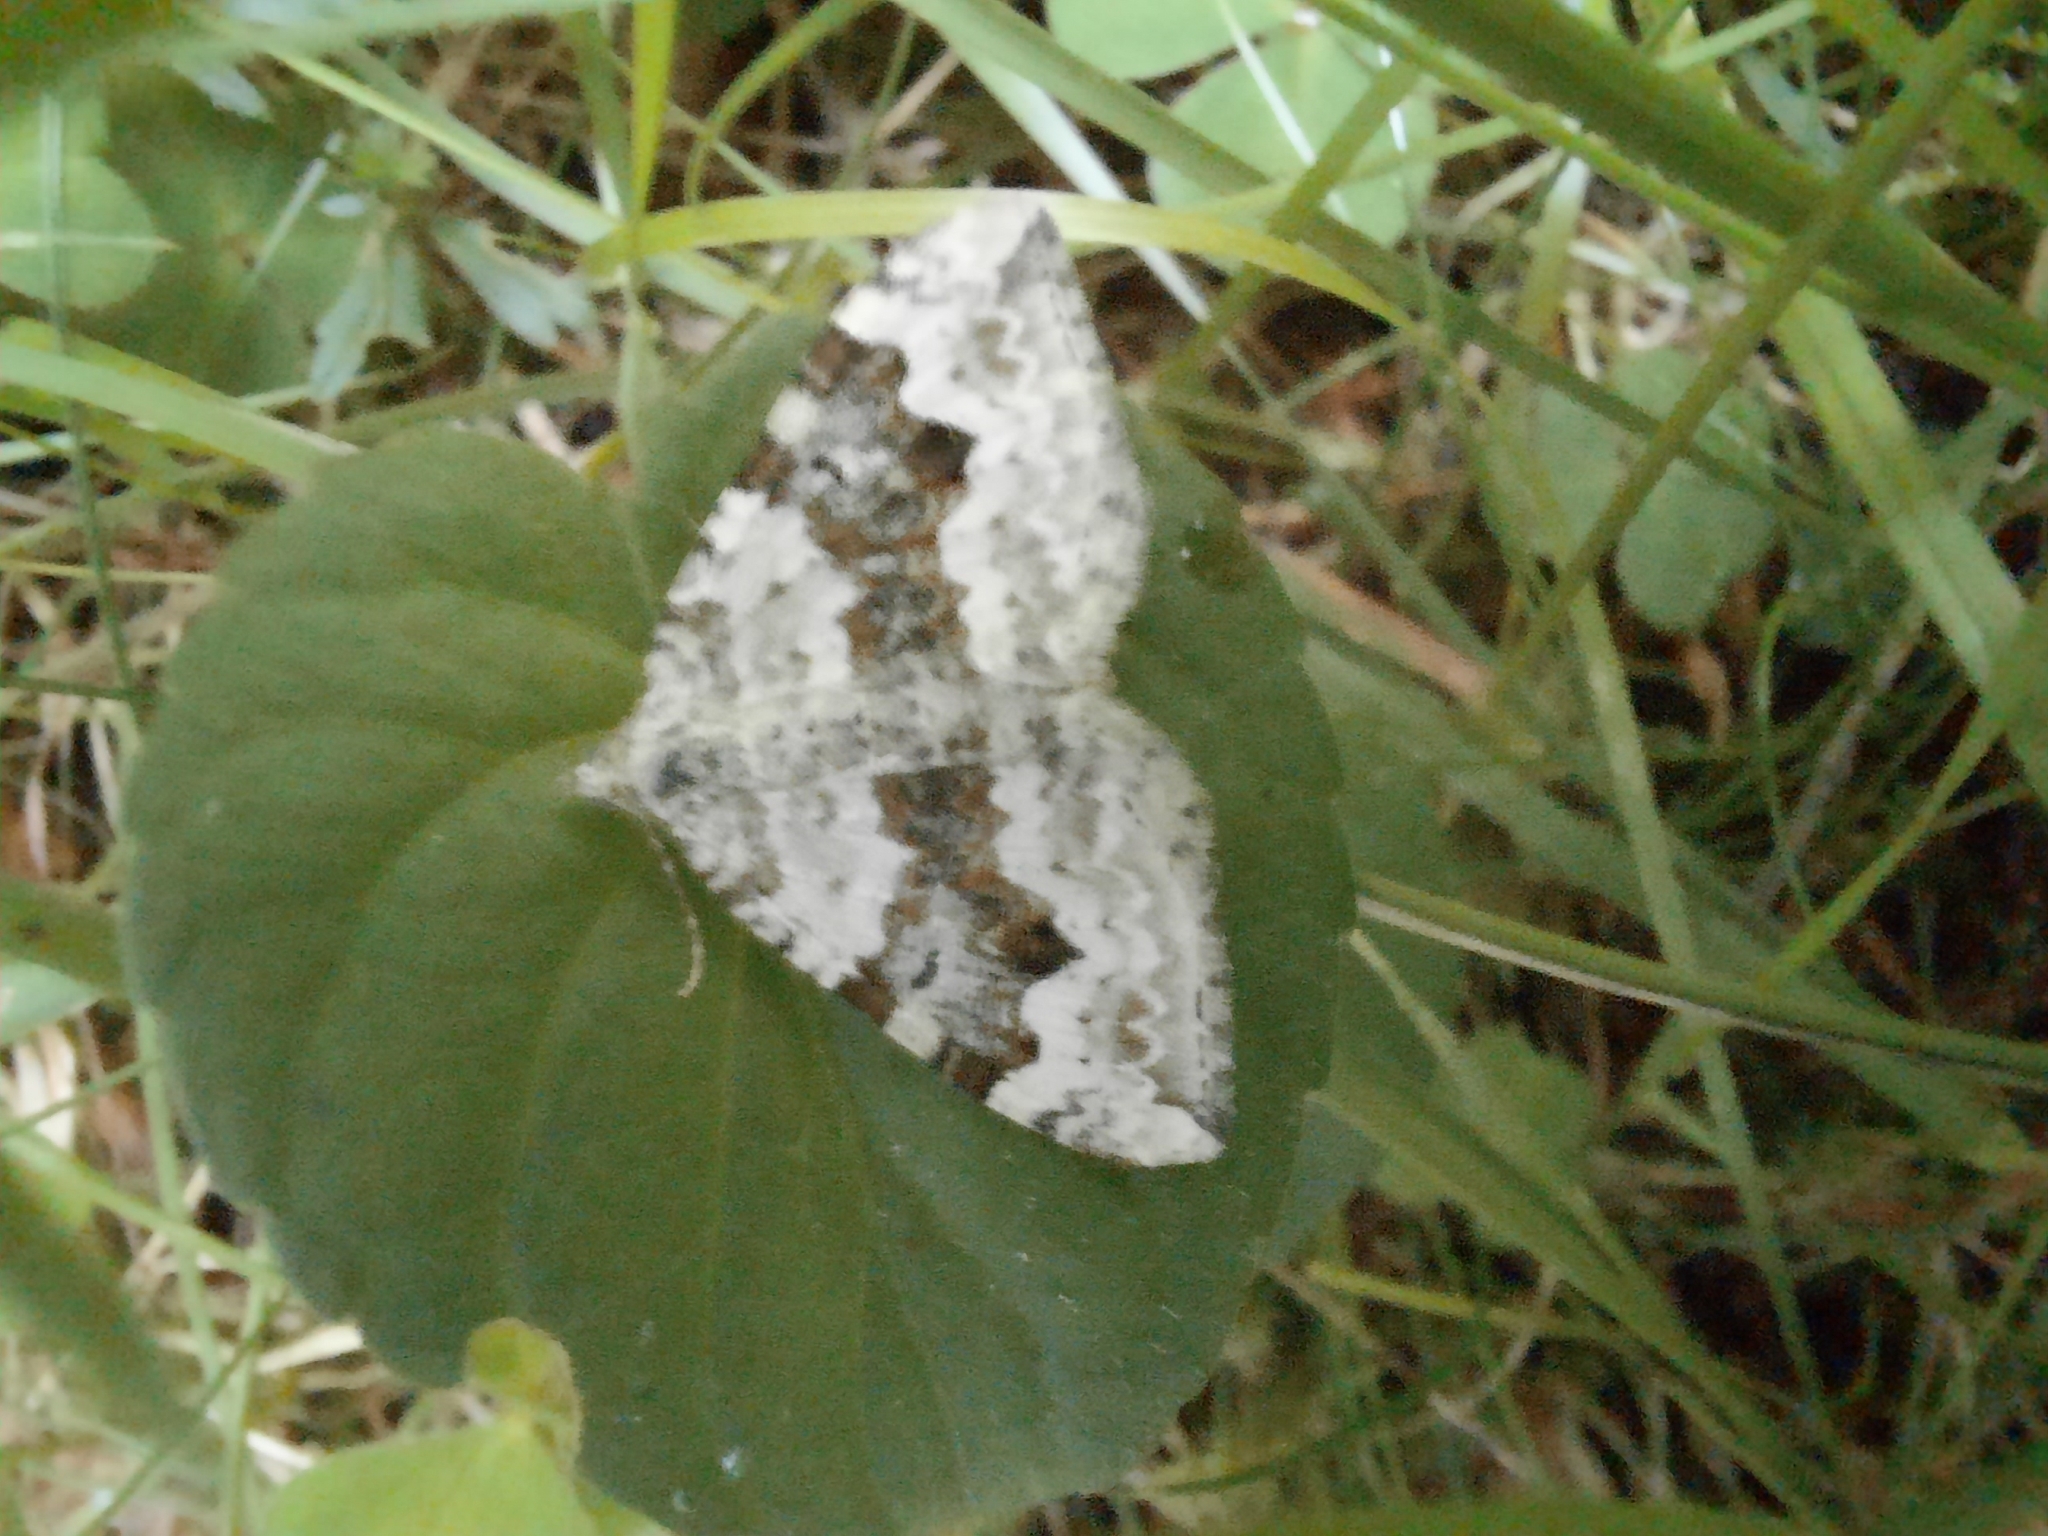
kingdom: Animalia
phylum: Arthropoda
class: Insecta
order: Lepidoptera
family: Geometridae
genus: Xanthorhoe
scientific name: Xanthorhoe montanata
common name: Silver-ground carpet
